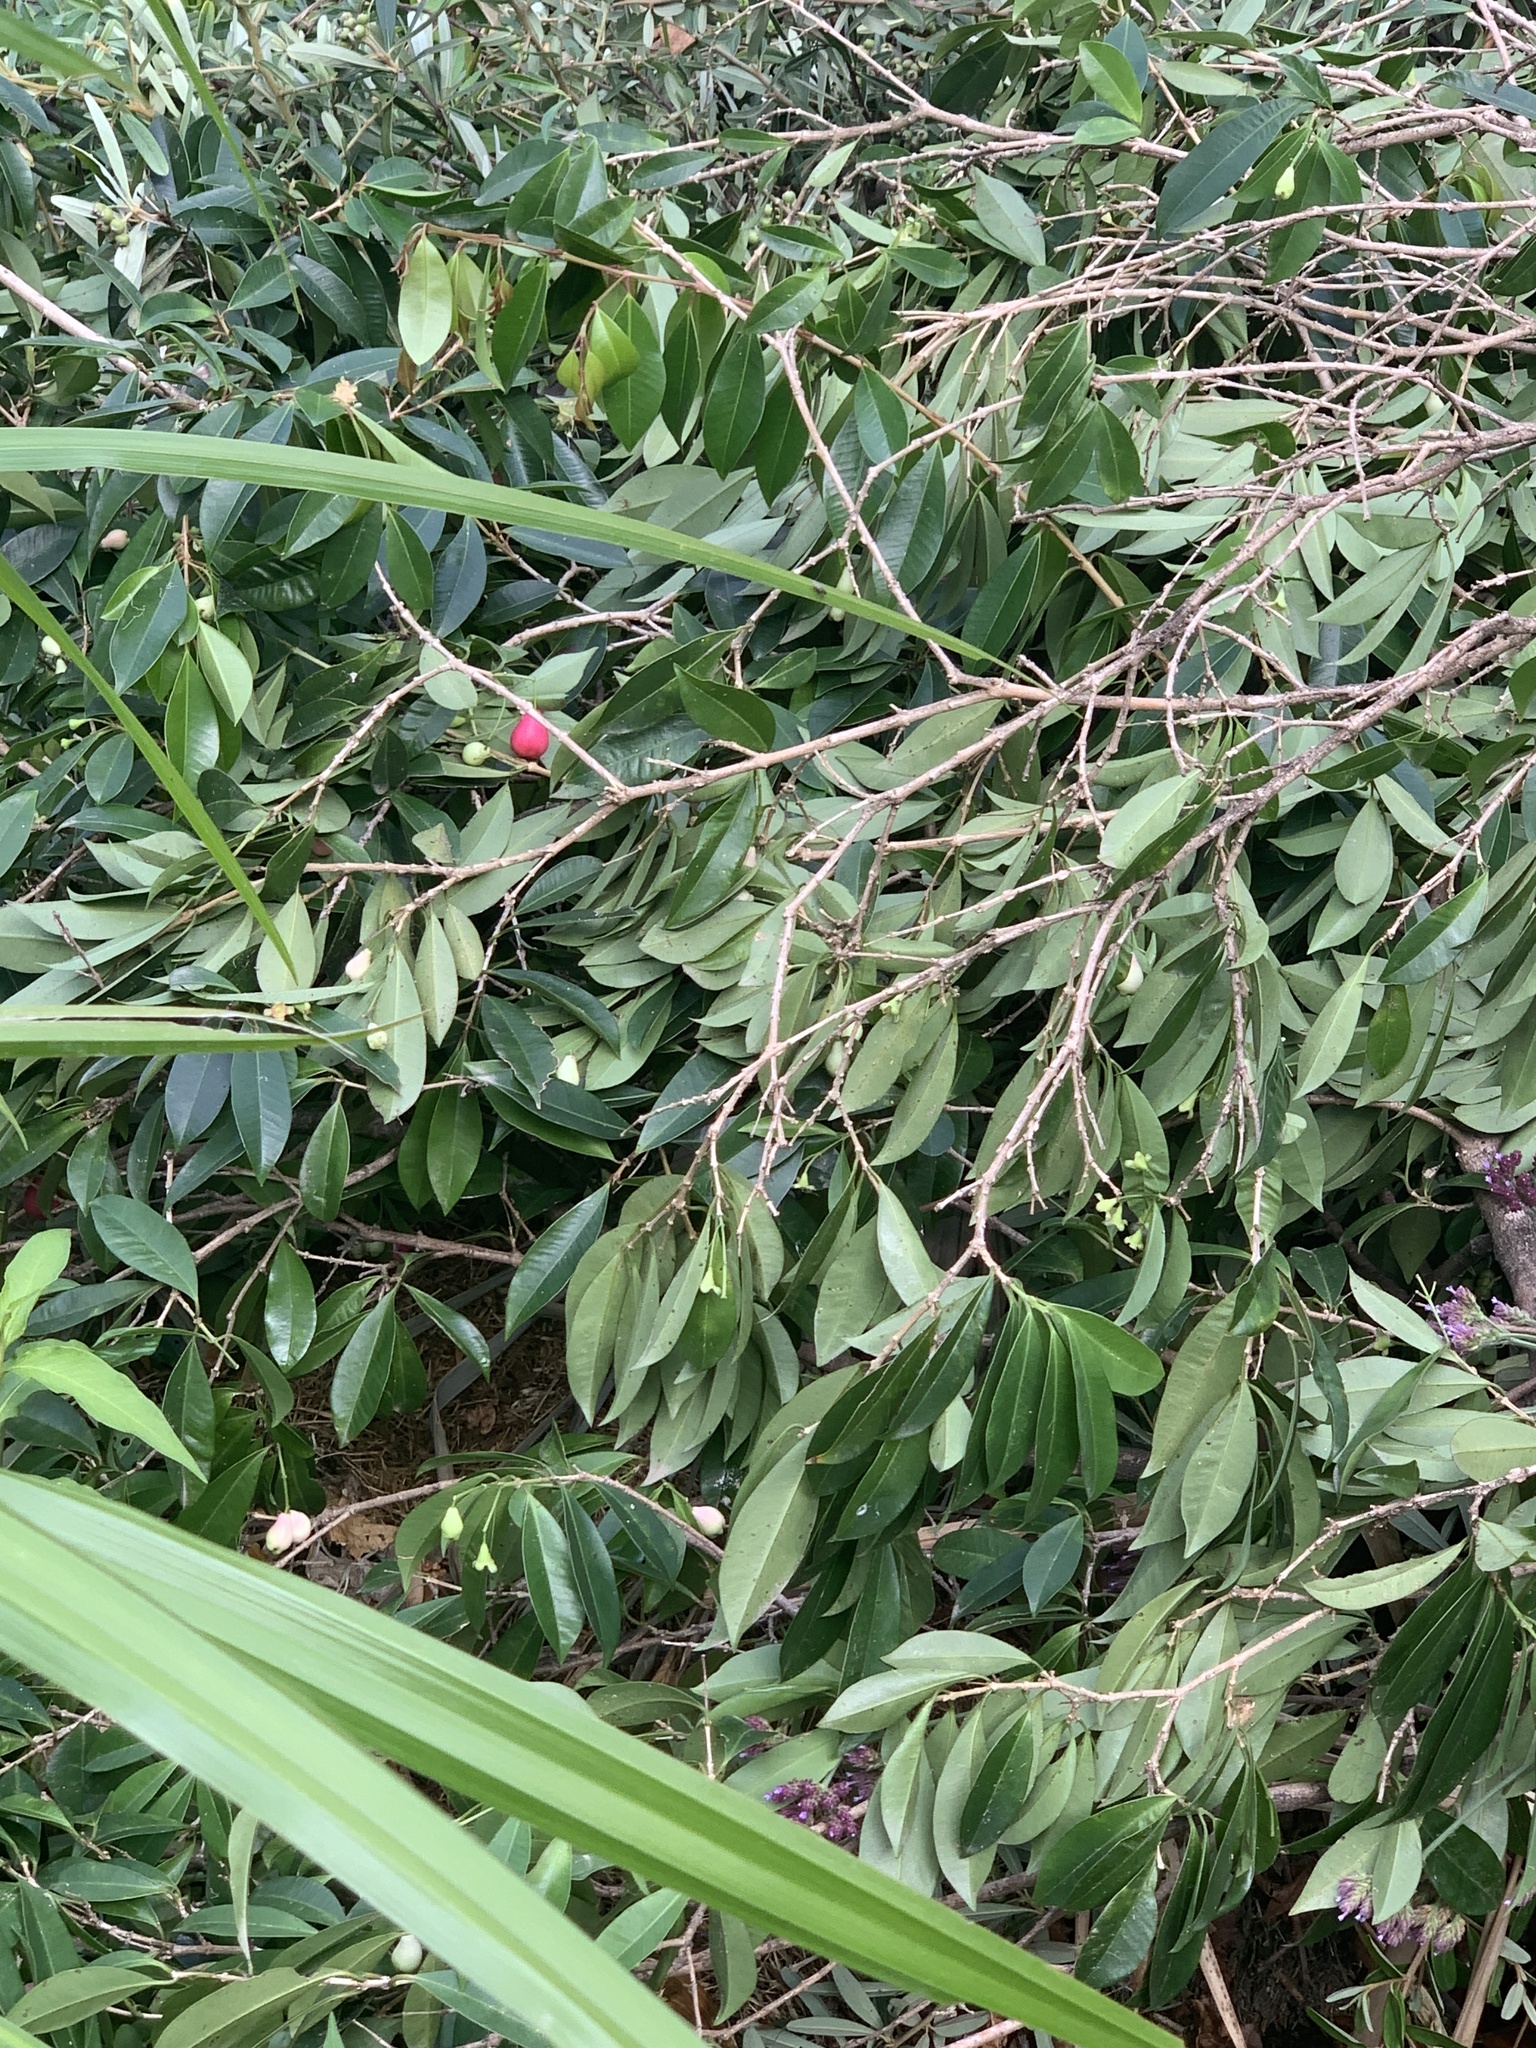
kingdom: Plantae
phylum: Tracheophyta
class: Magnoliopsida
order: Myrtales
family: Myrtaceae
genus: Syzygium
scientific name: Syzygium australe
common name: Australian brush-cherry
